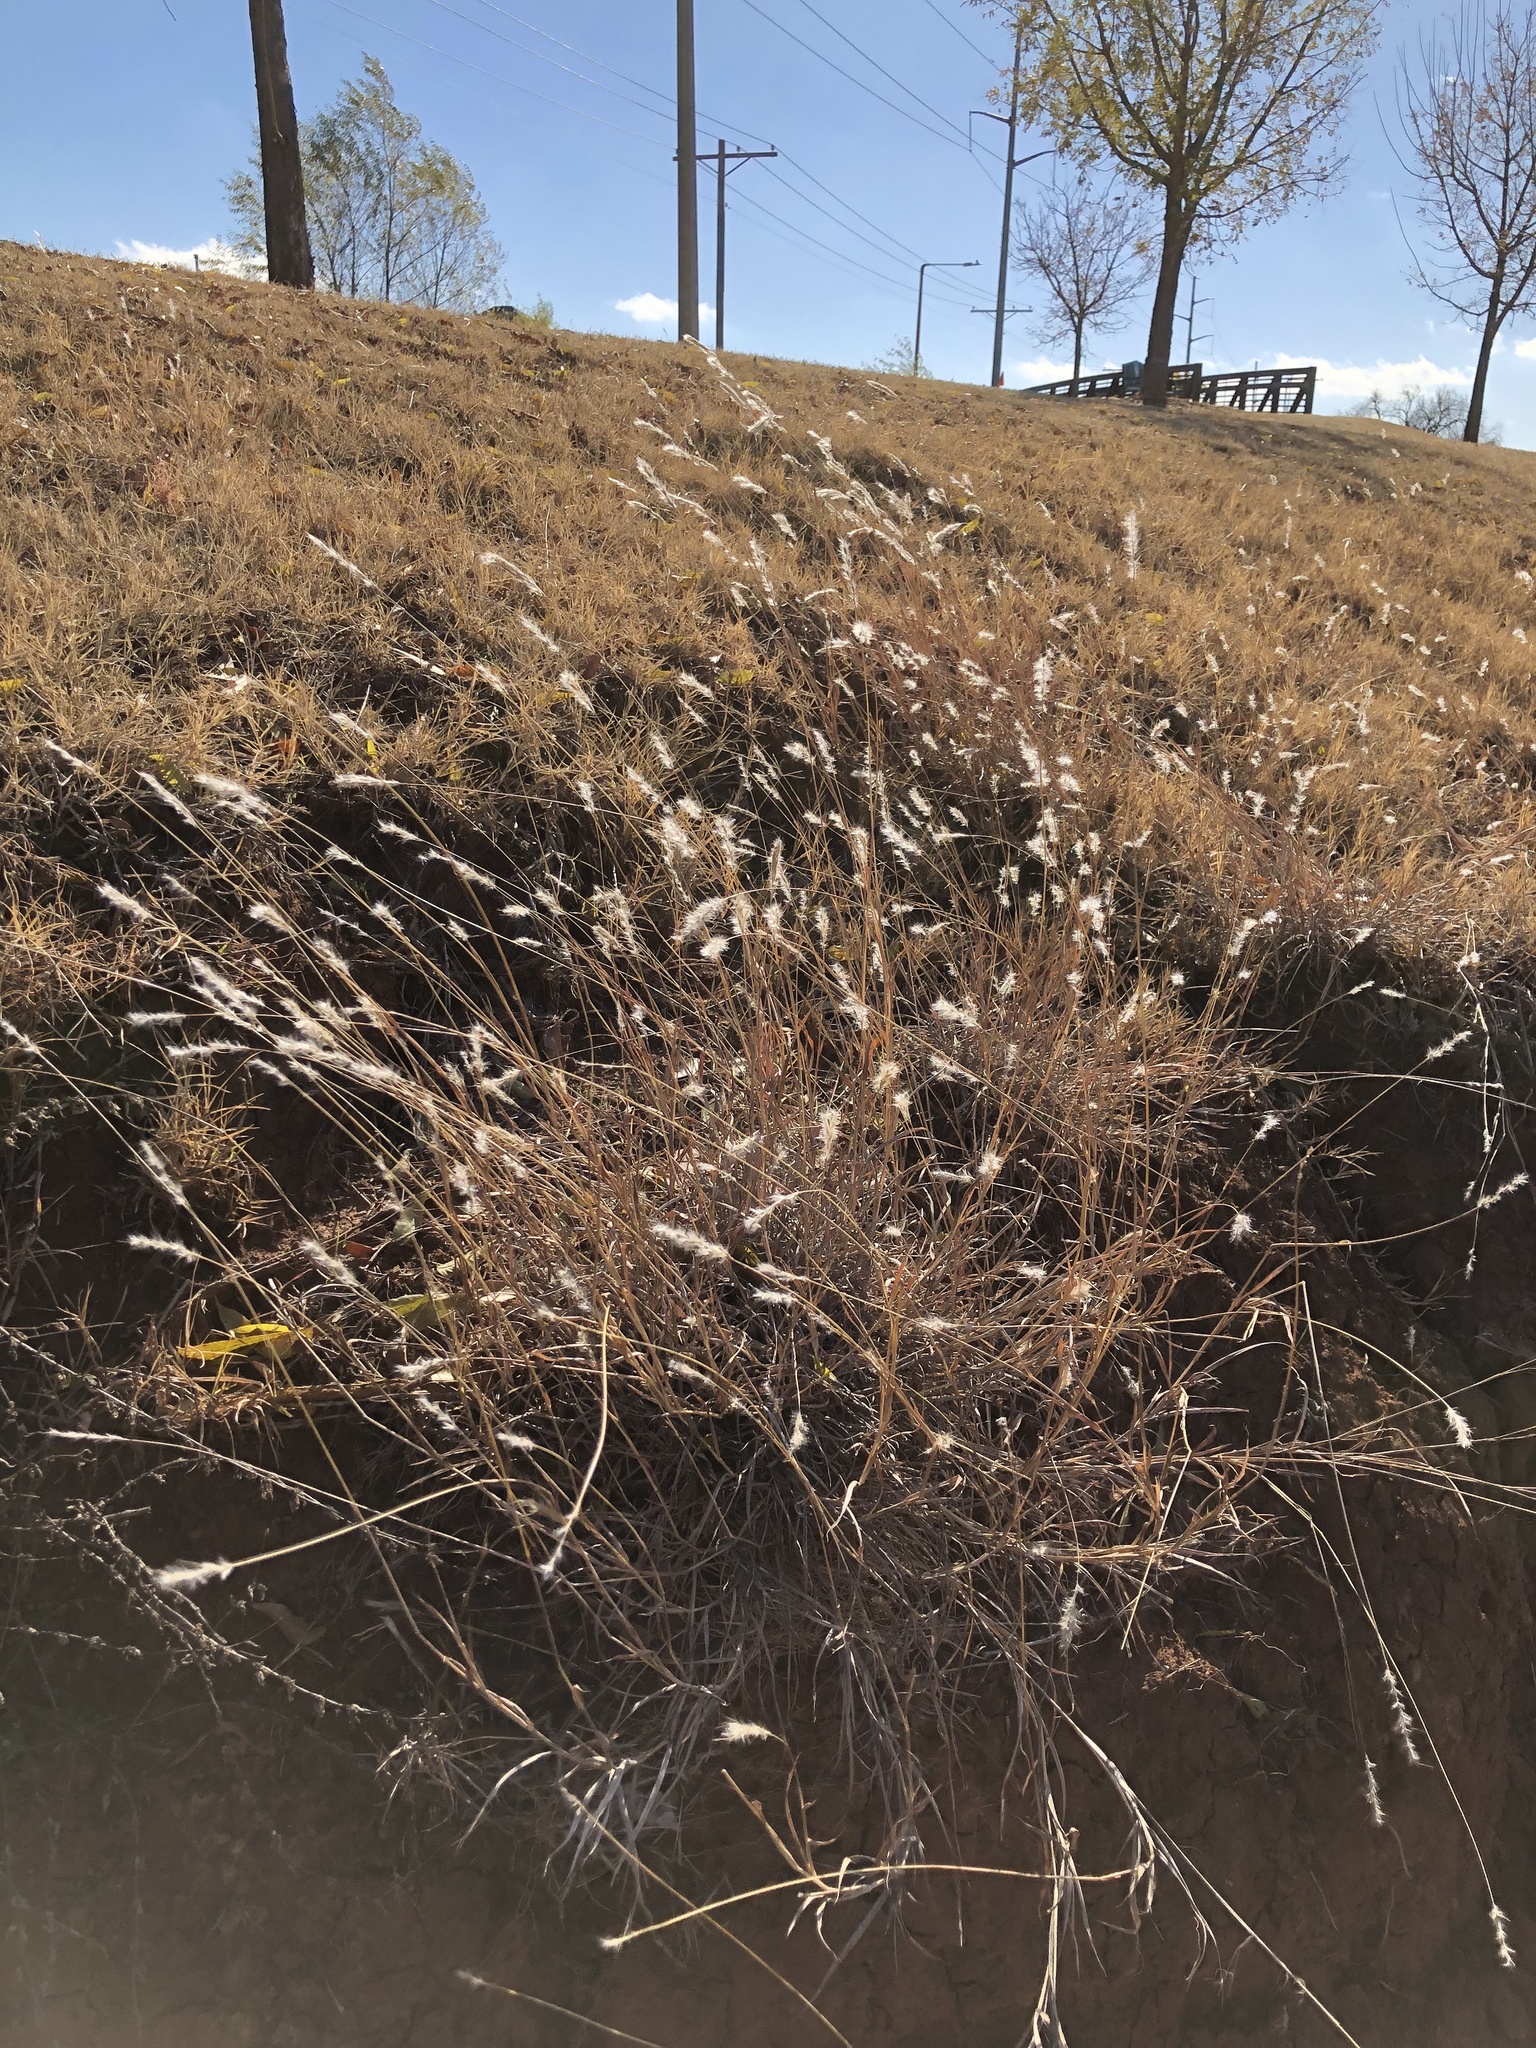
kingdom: Plantae
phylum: Tracheophyta
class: Liliopsida
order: Poales
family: Poaceae
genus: Bothriochloa
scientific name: Bothriochloa torreyana
